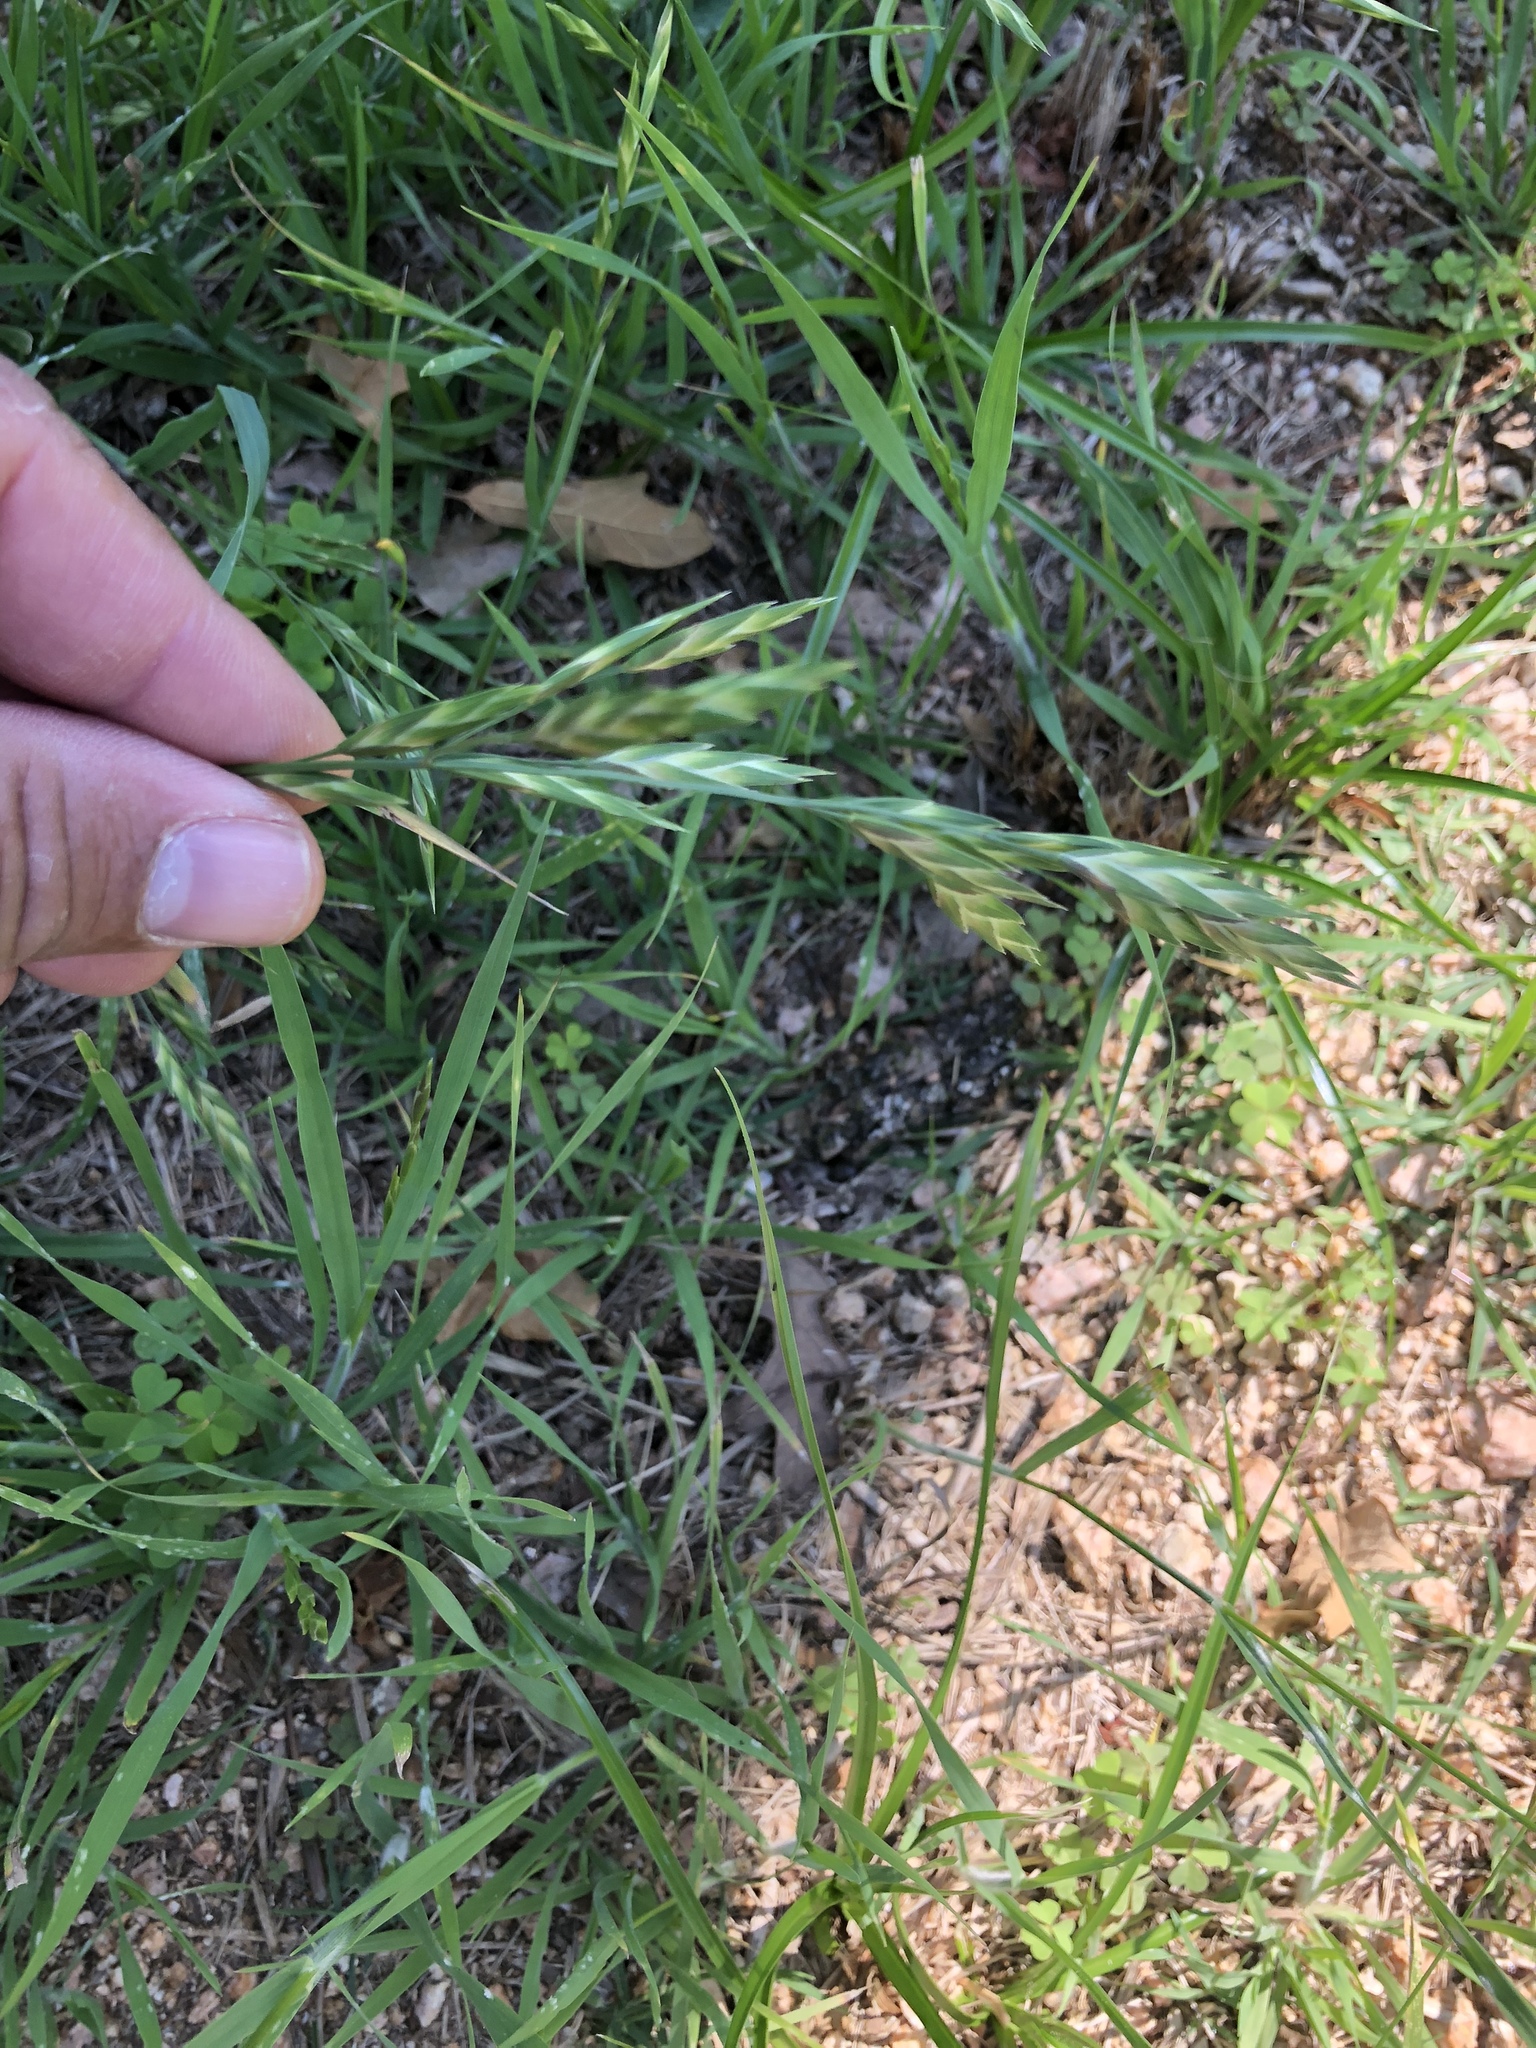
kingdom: Plantae
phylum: Tracheophyta
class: Liliopsida
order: Poales
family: Poaceae
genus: Bromus
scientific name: Bromus catharticus
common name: Rescuegrass
